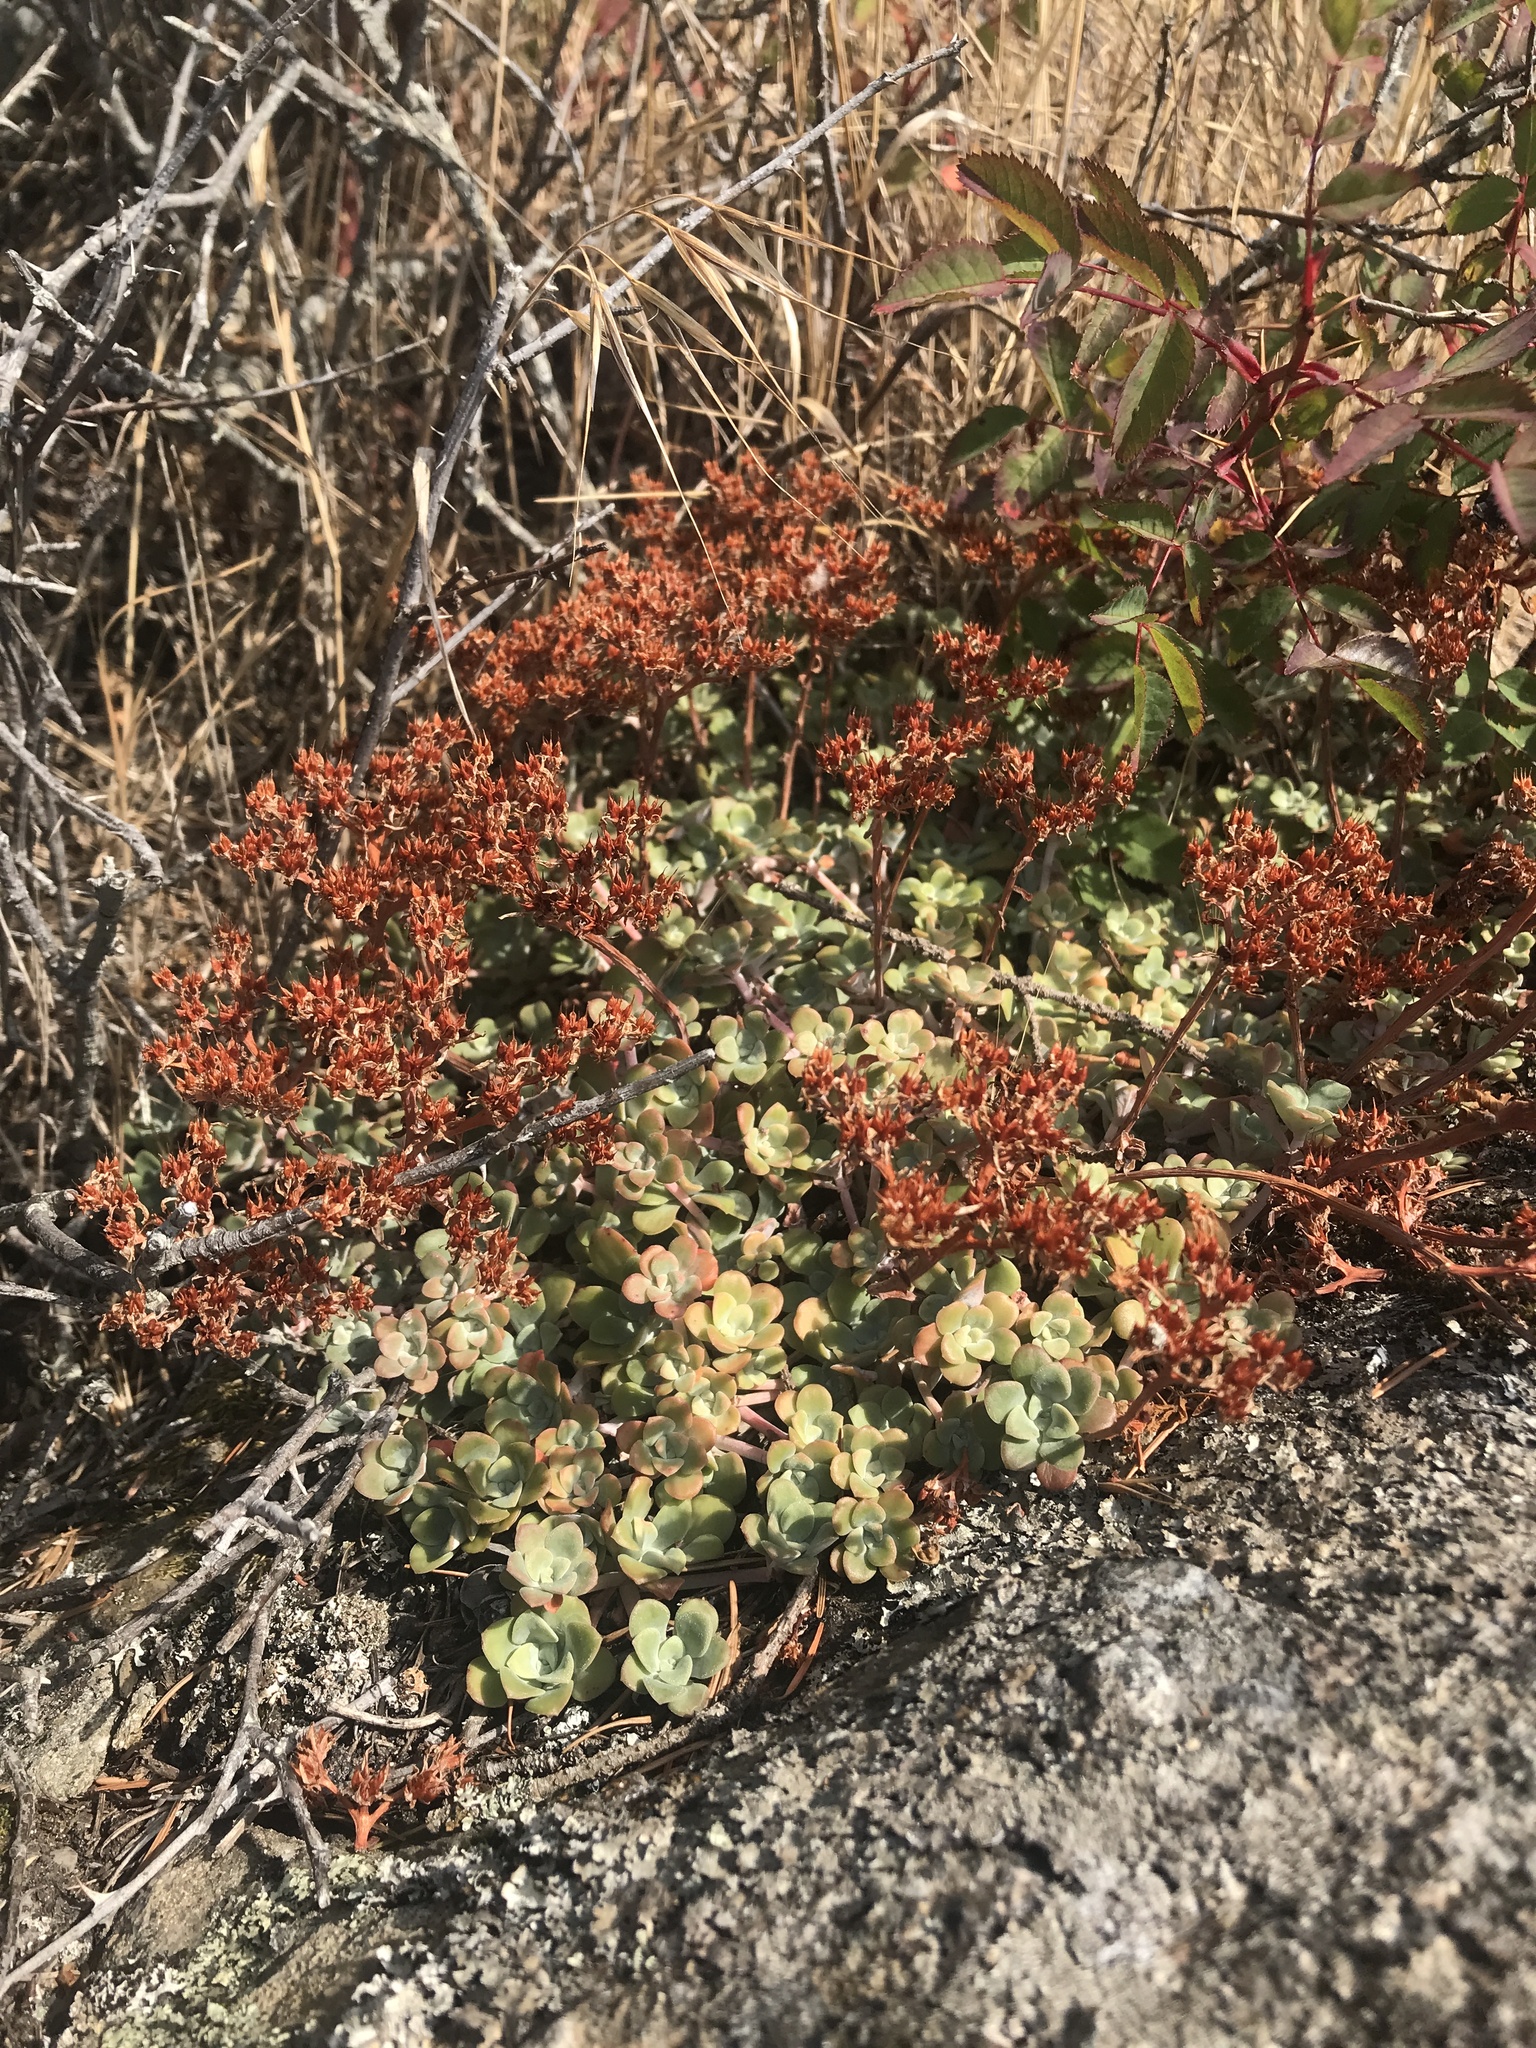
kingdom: Plantae
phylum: Tracheophyta
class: Magnoliopsida
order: Saxifragales
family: Crassulaceae
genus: Sedum
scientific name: Sedum spathulifolium
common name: Colorado stonecrop
